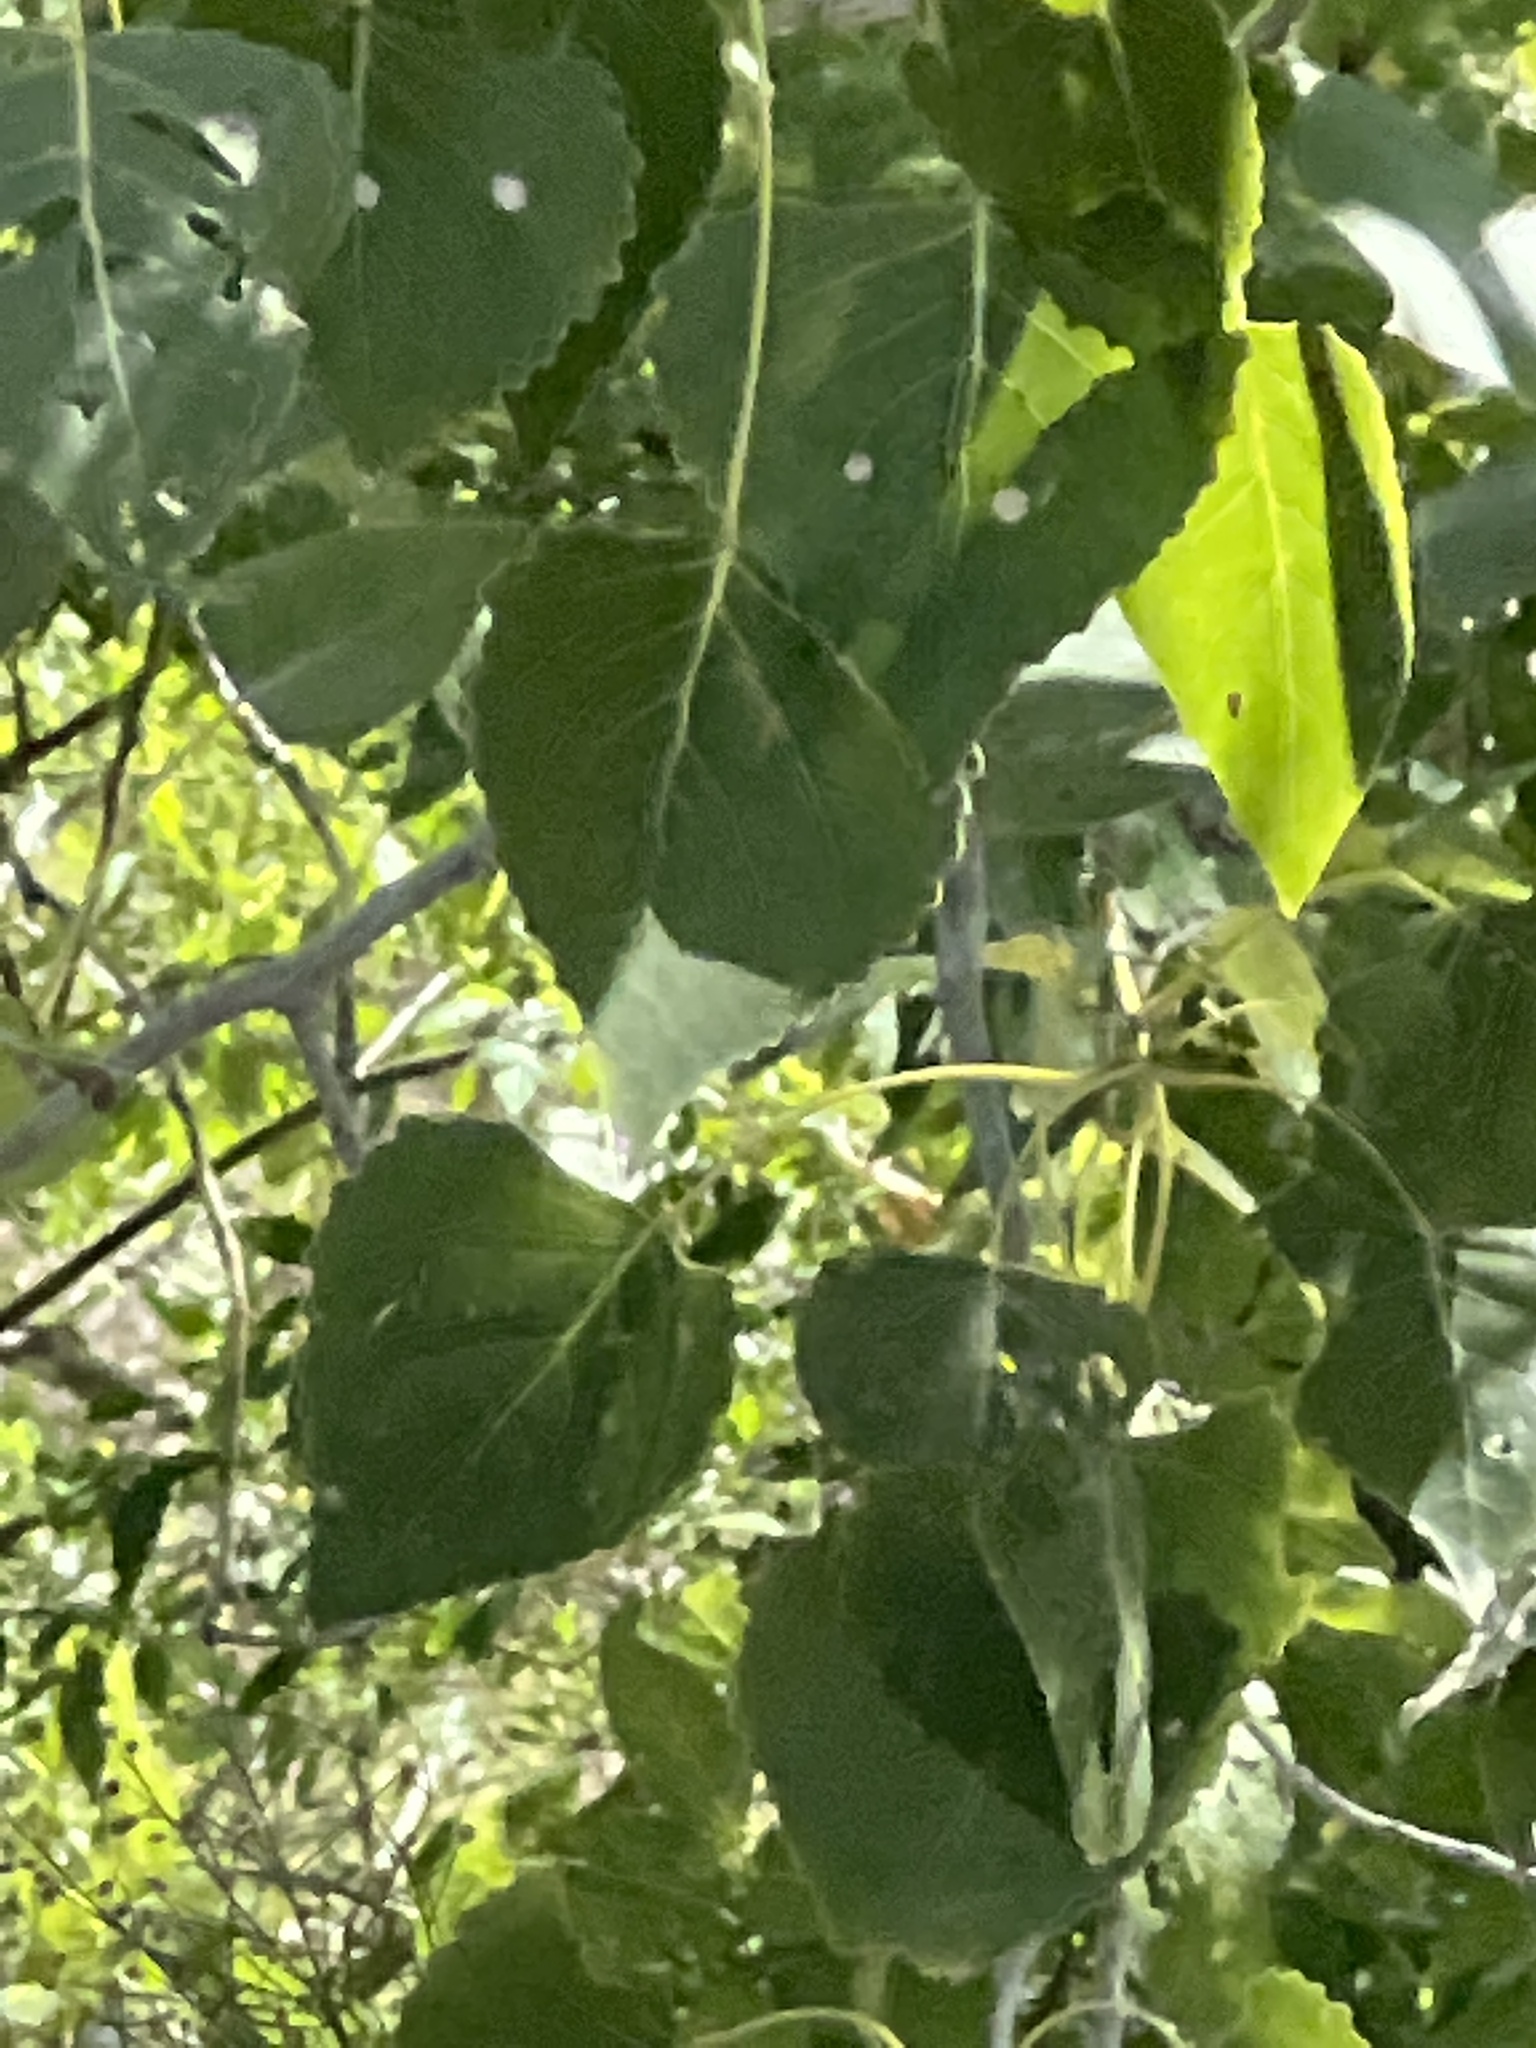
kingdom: Plantae
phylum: Tracheophyta
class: Magnoliopsida
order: Malpighiales
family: Salicaceae
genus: Populus
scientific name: Populus deltoides
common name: Eastern cottonwood
